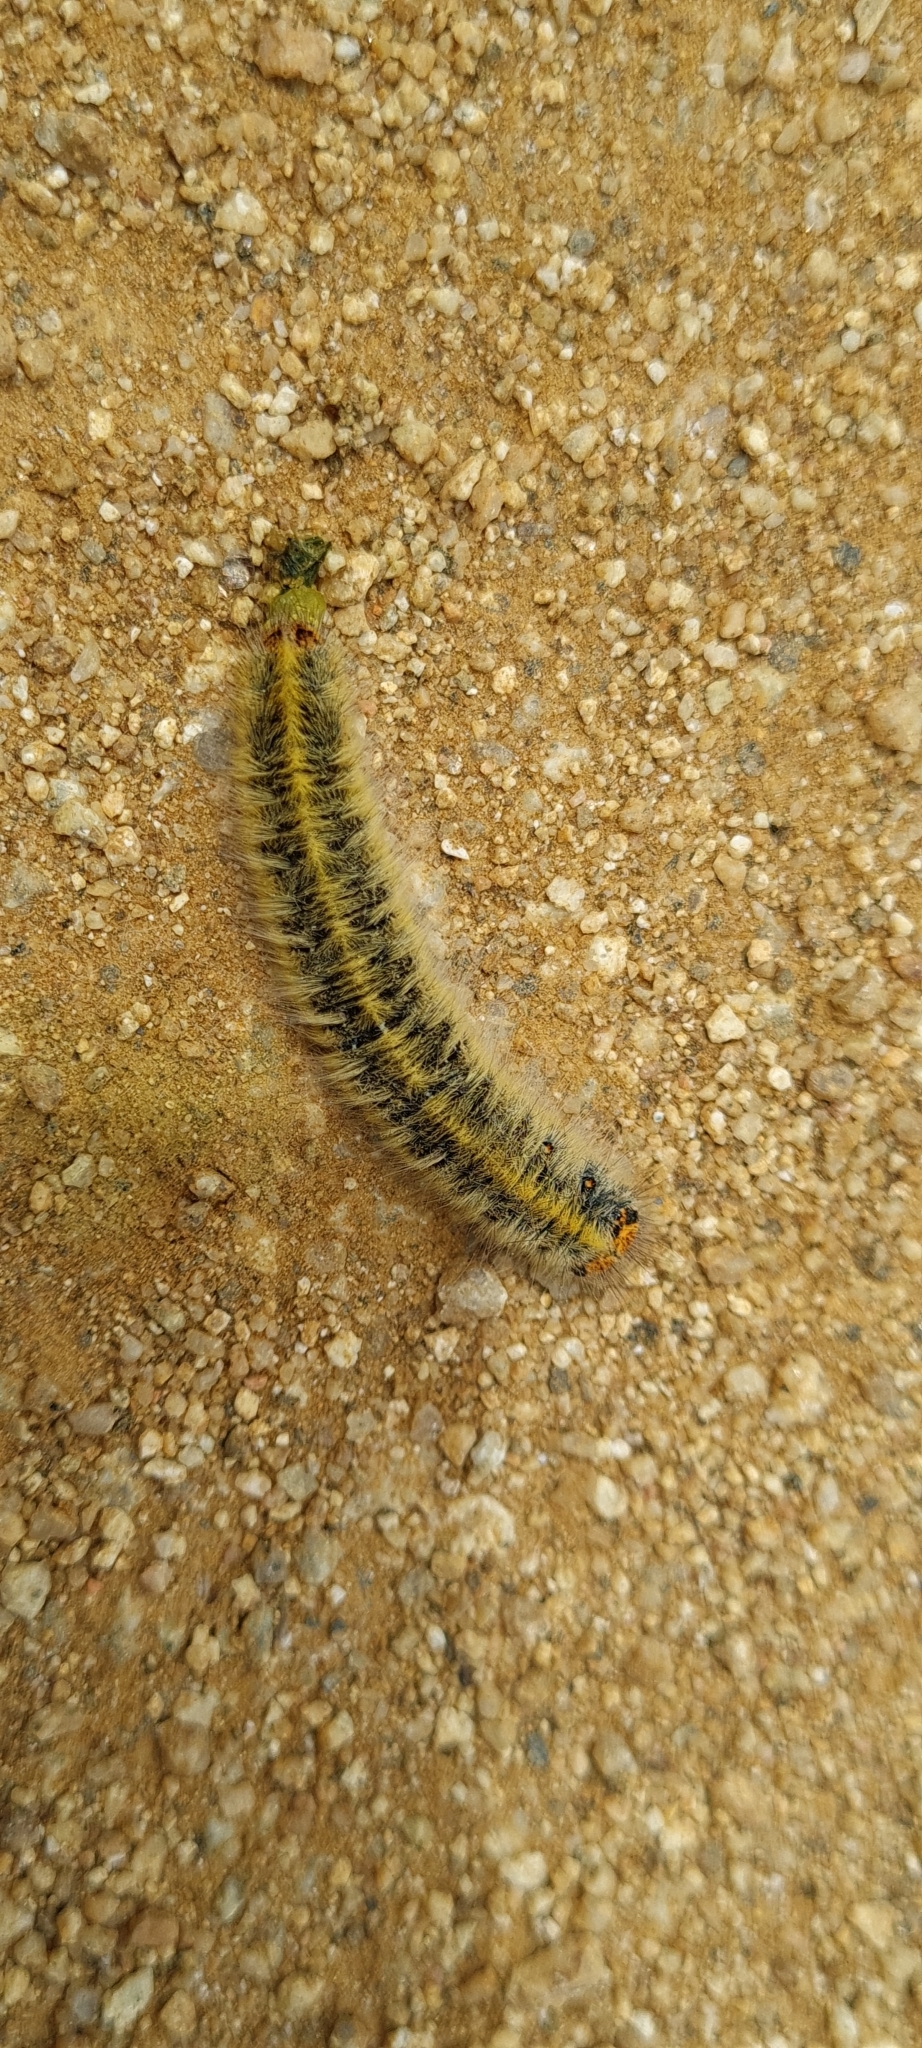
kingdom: Animalia
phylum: Arthropoda
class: Insecta
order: Lepidoptera
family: Lasiocampidae
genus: Lasiocampa
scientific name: Lasiocampa trifolii
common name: Grass eggar
